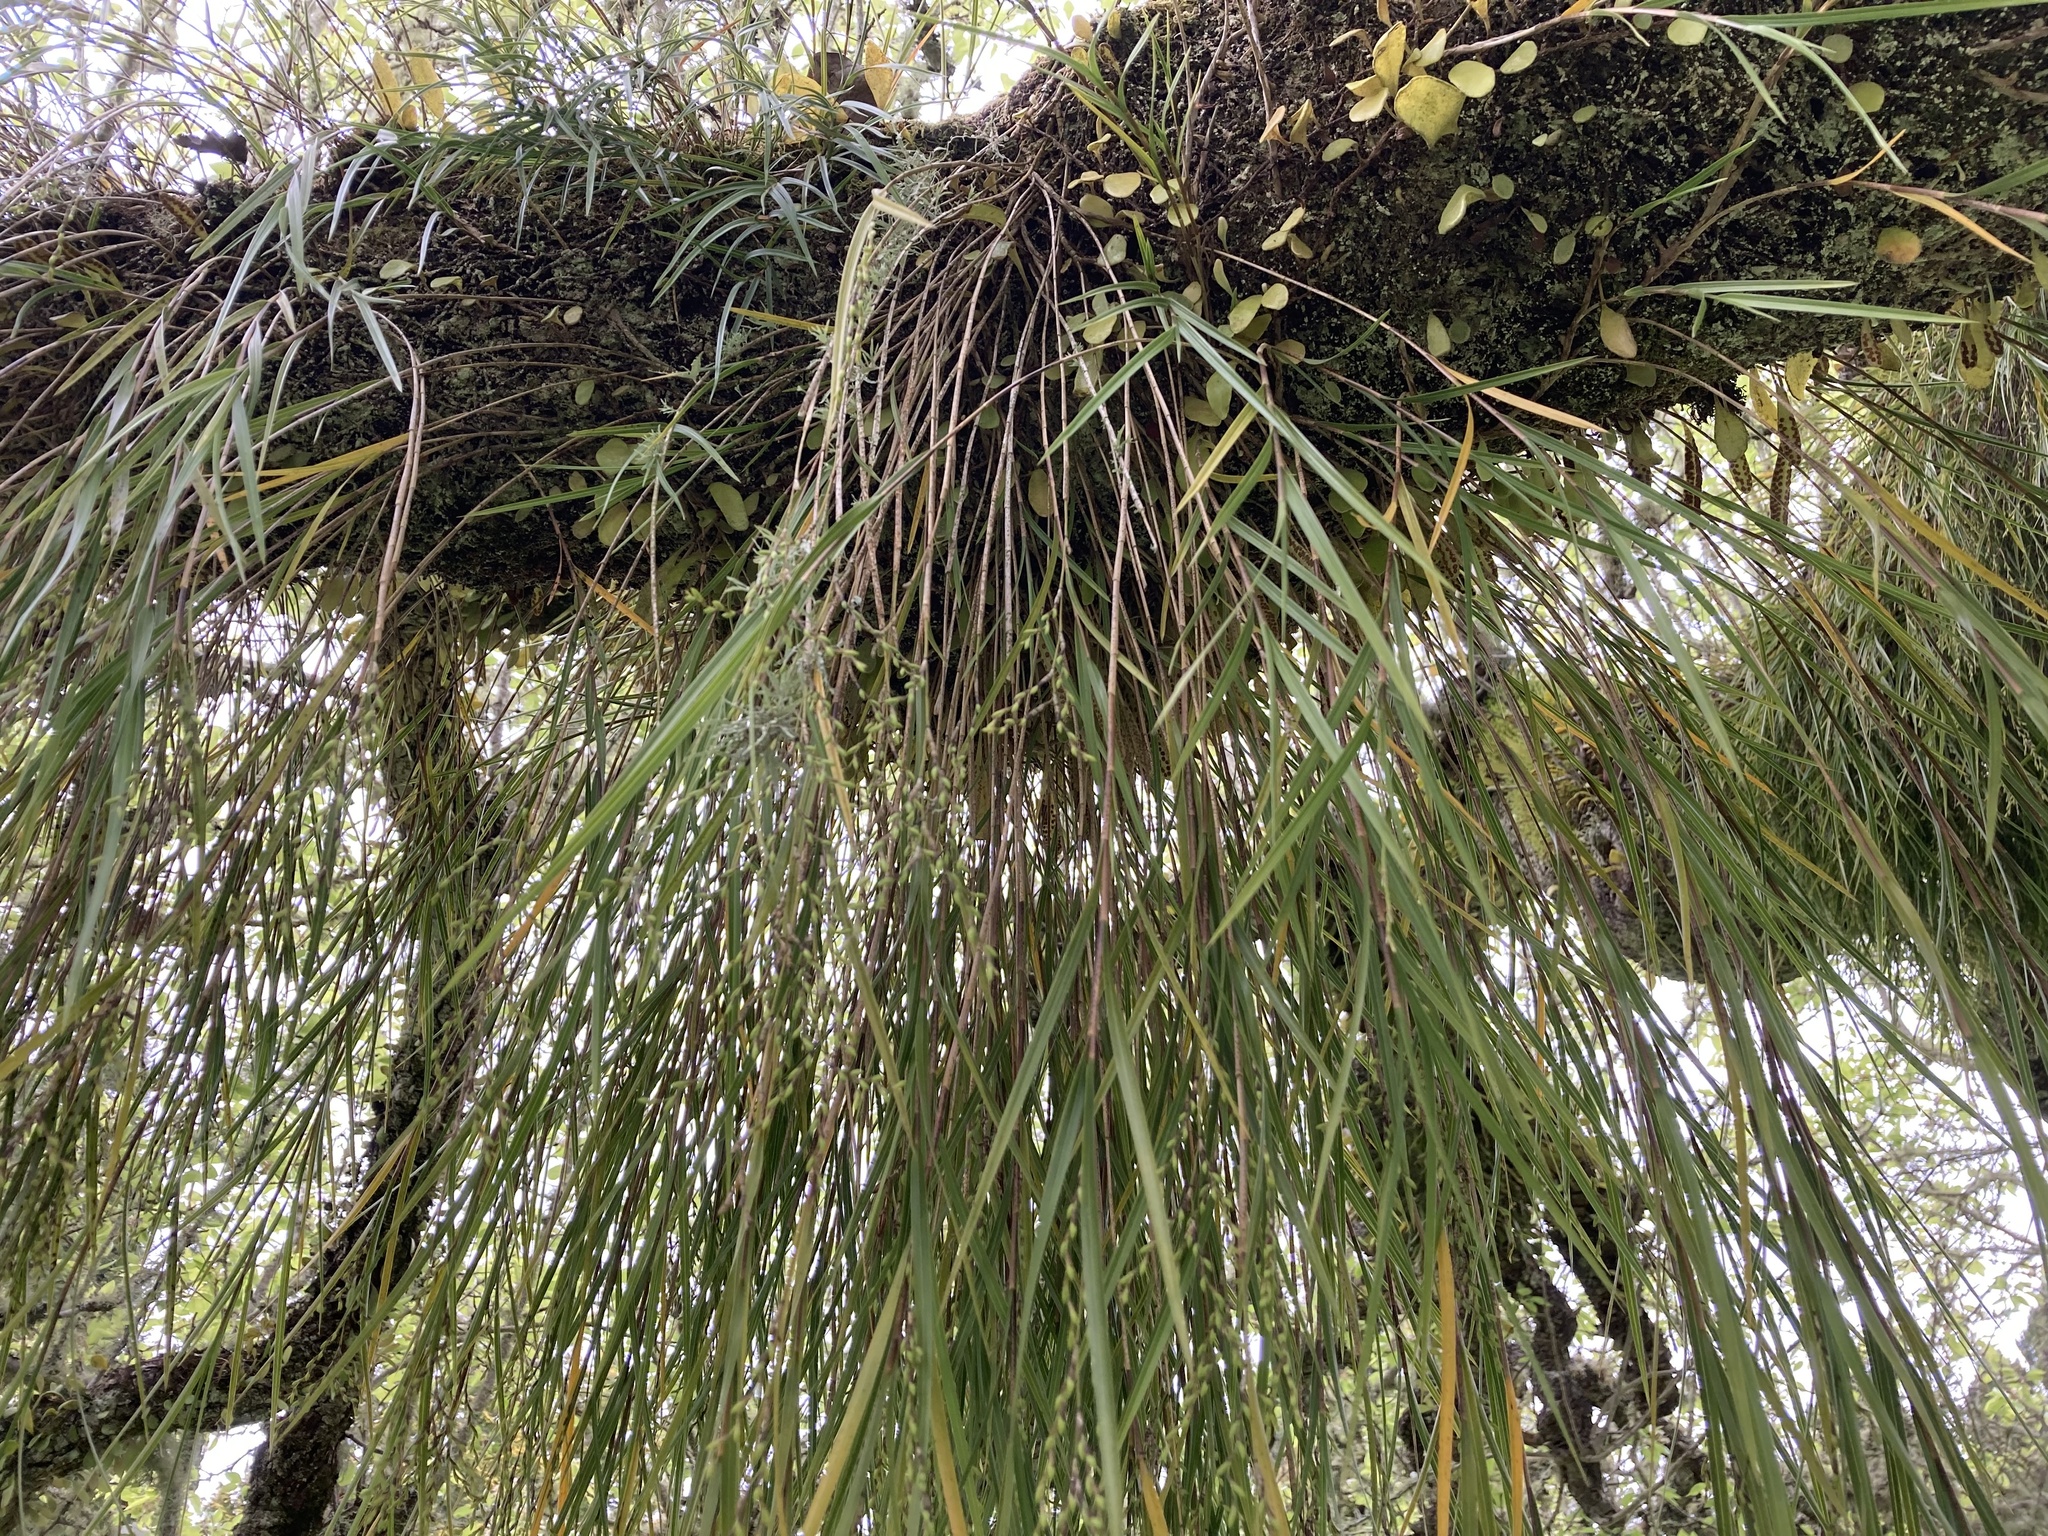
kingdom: Plantae
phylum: Tracheophyta
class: Liliopsida
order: Asparagales
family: Orchidaceae
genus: Earina
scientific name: Earina mucronata
